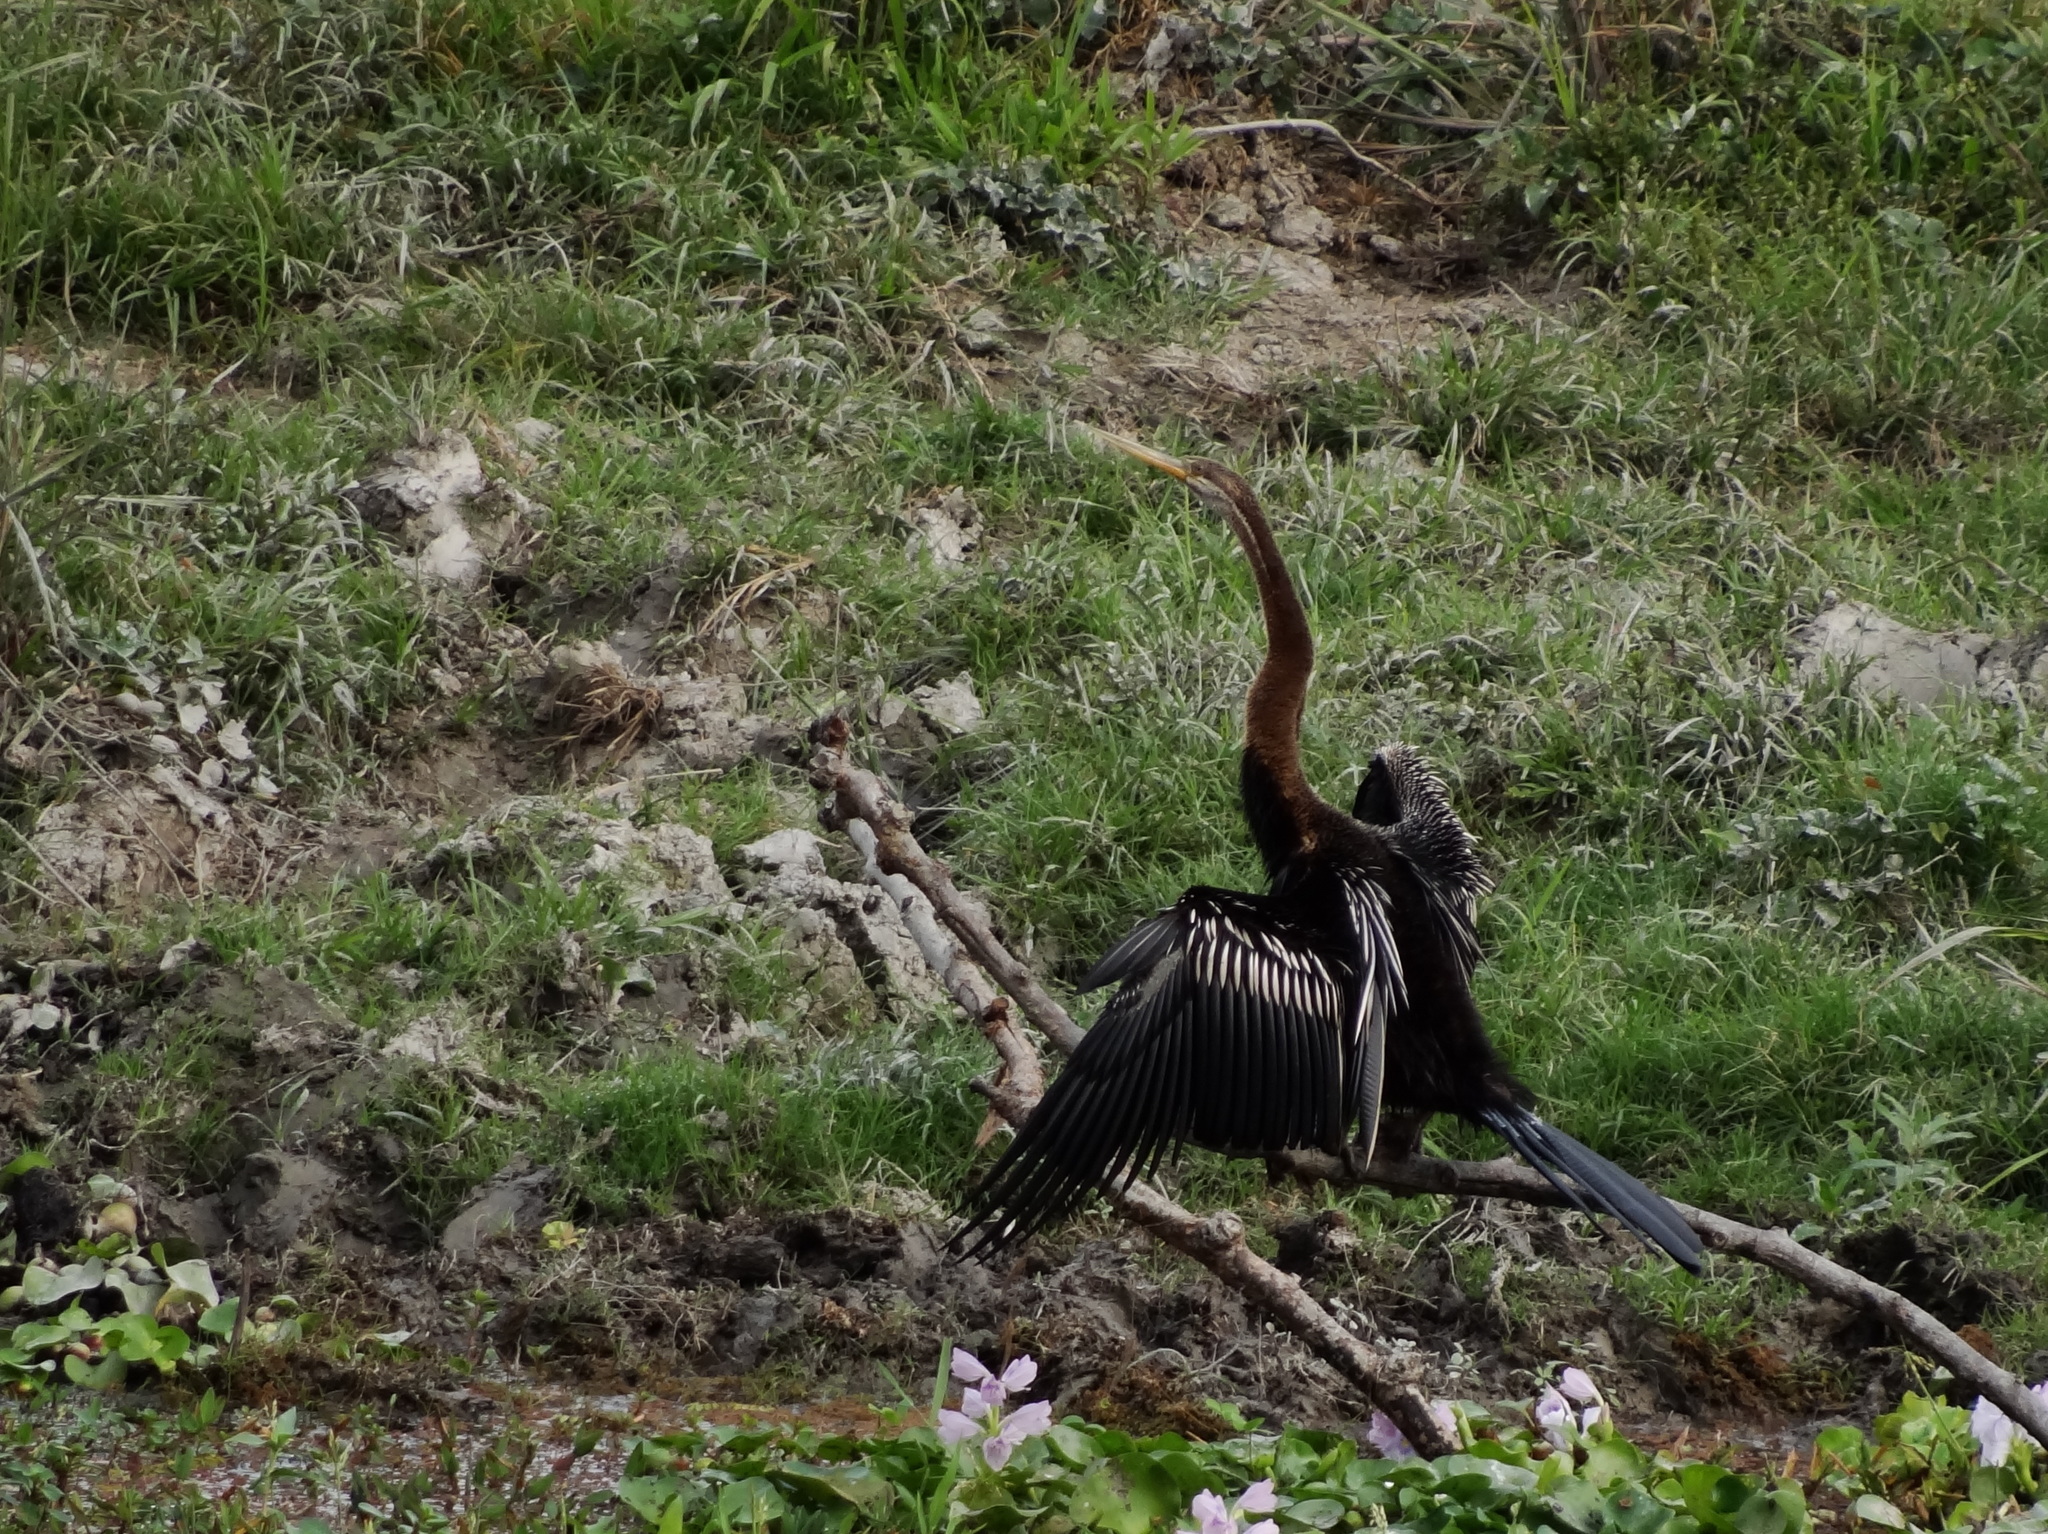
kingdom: Animalia
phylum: Chordata
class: Aves
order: Suliformes
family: Anhingidae
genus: Anhinga
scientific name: Anhinga melanogaster
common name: Oriental darter
